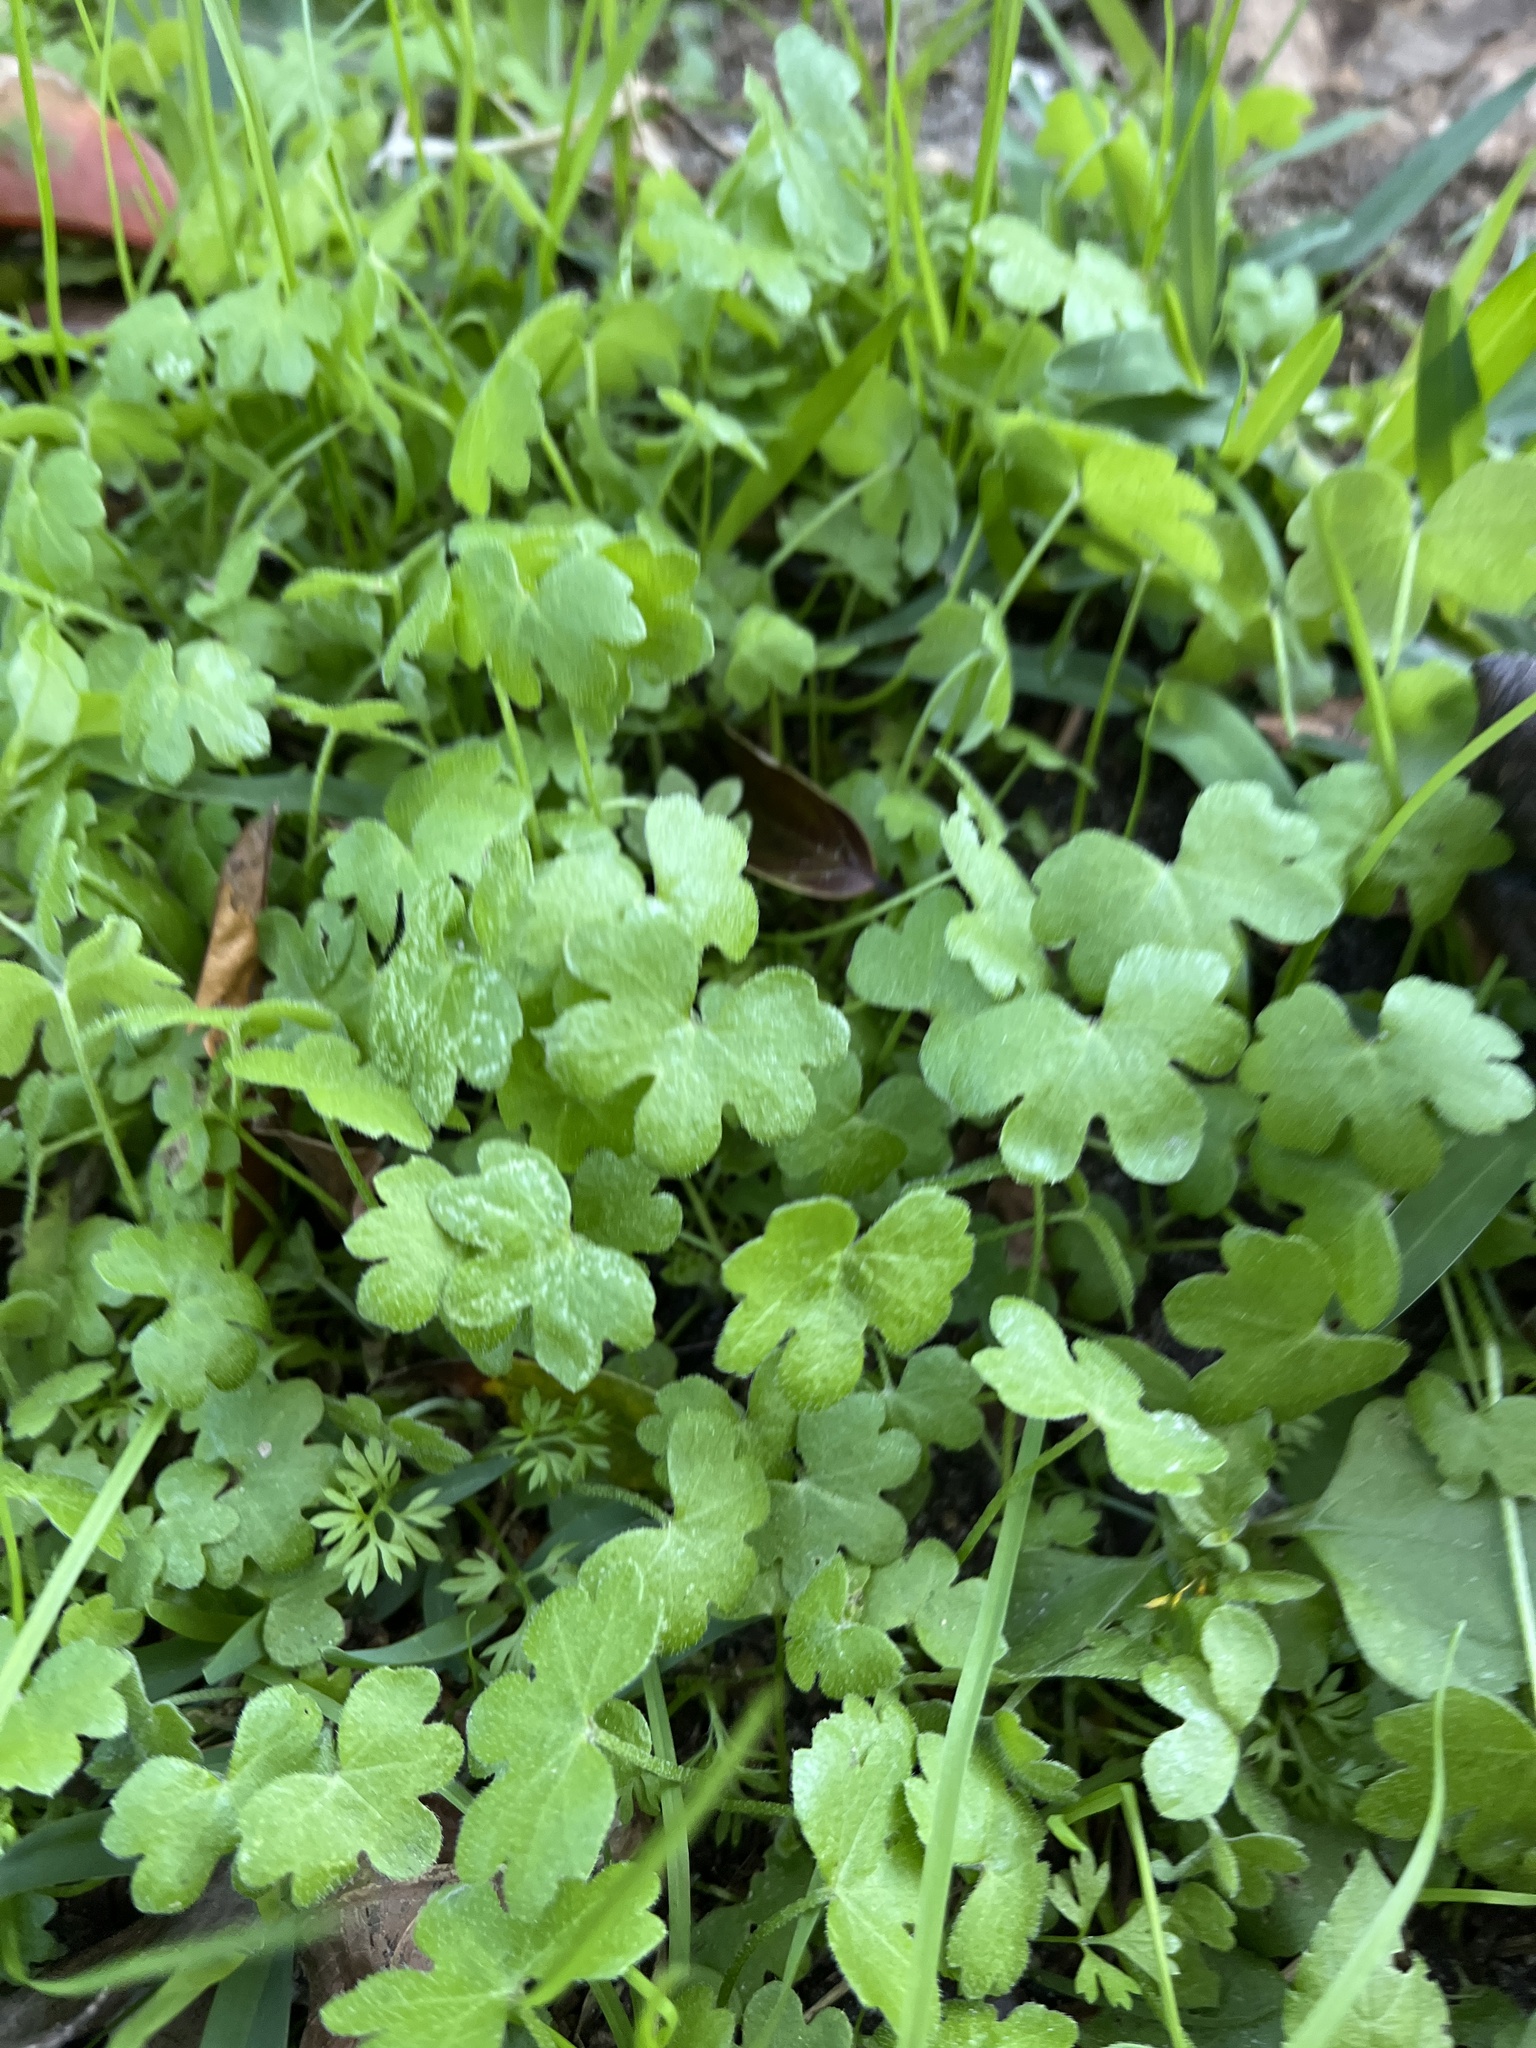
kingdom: Plantae
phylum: Tracheophyta
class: Magnoliopsida
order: Apiales
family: Apiaceae
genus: Bowlesia
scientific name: Bowlesia incana
